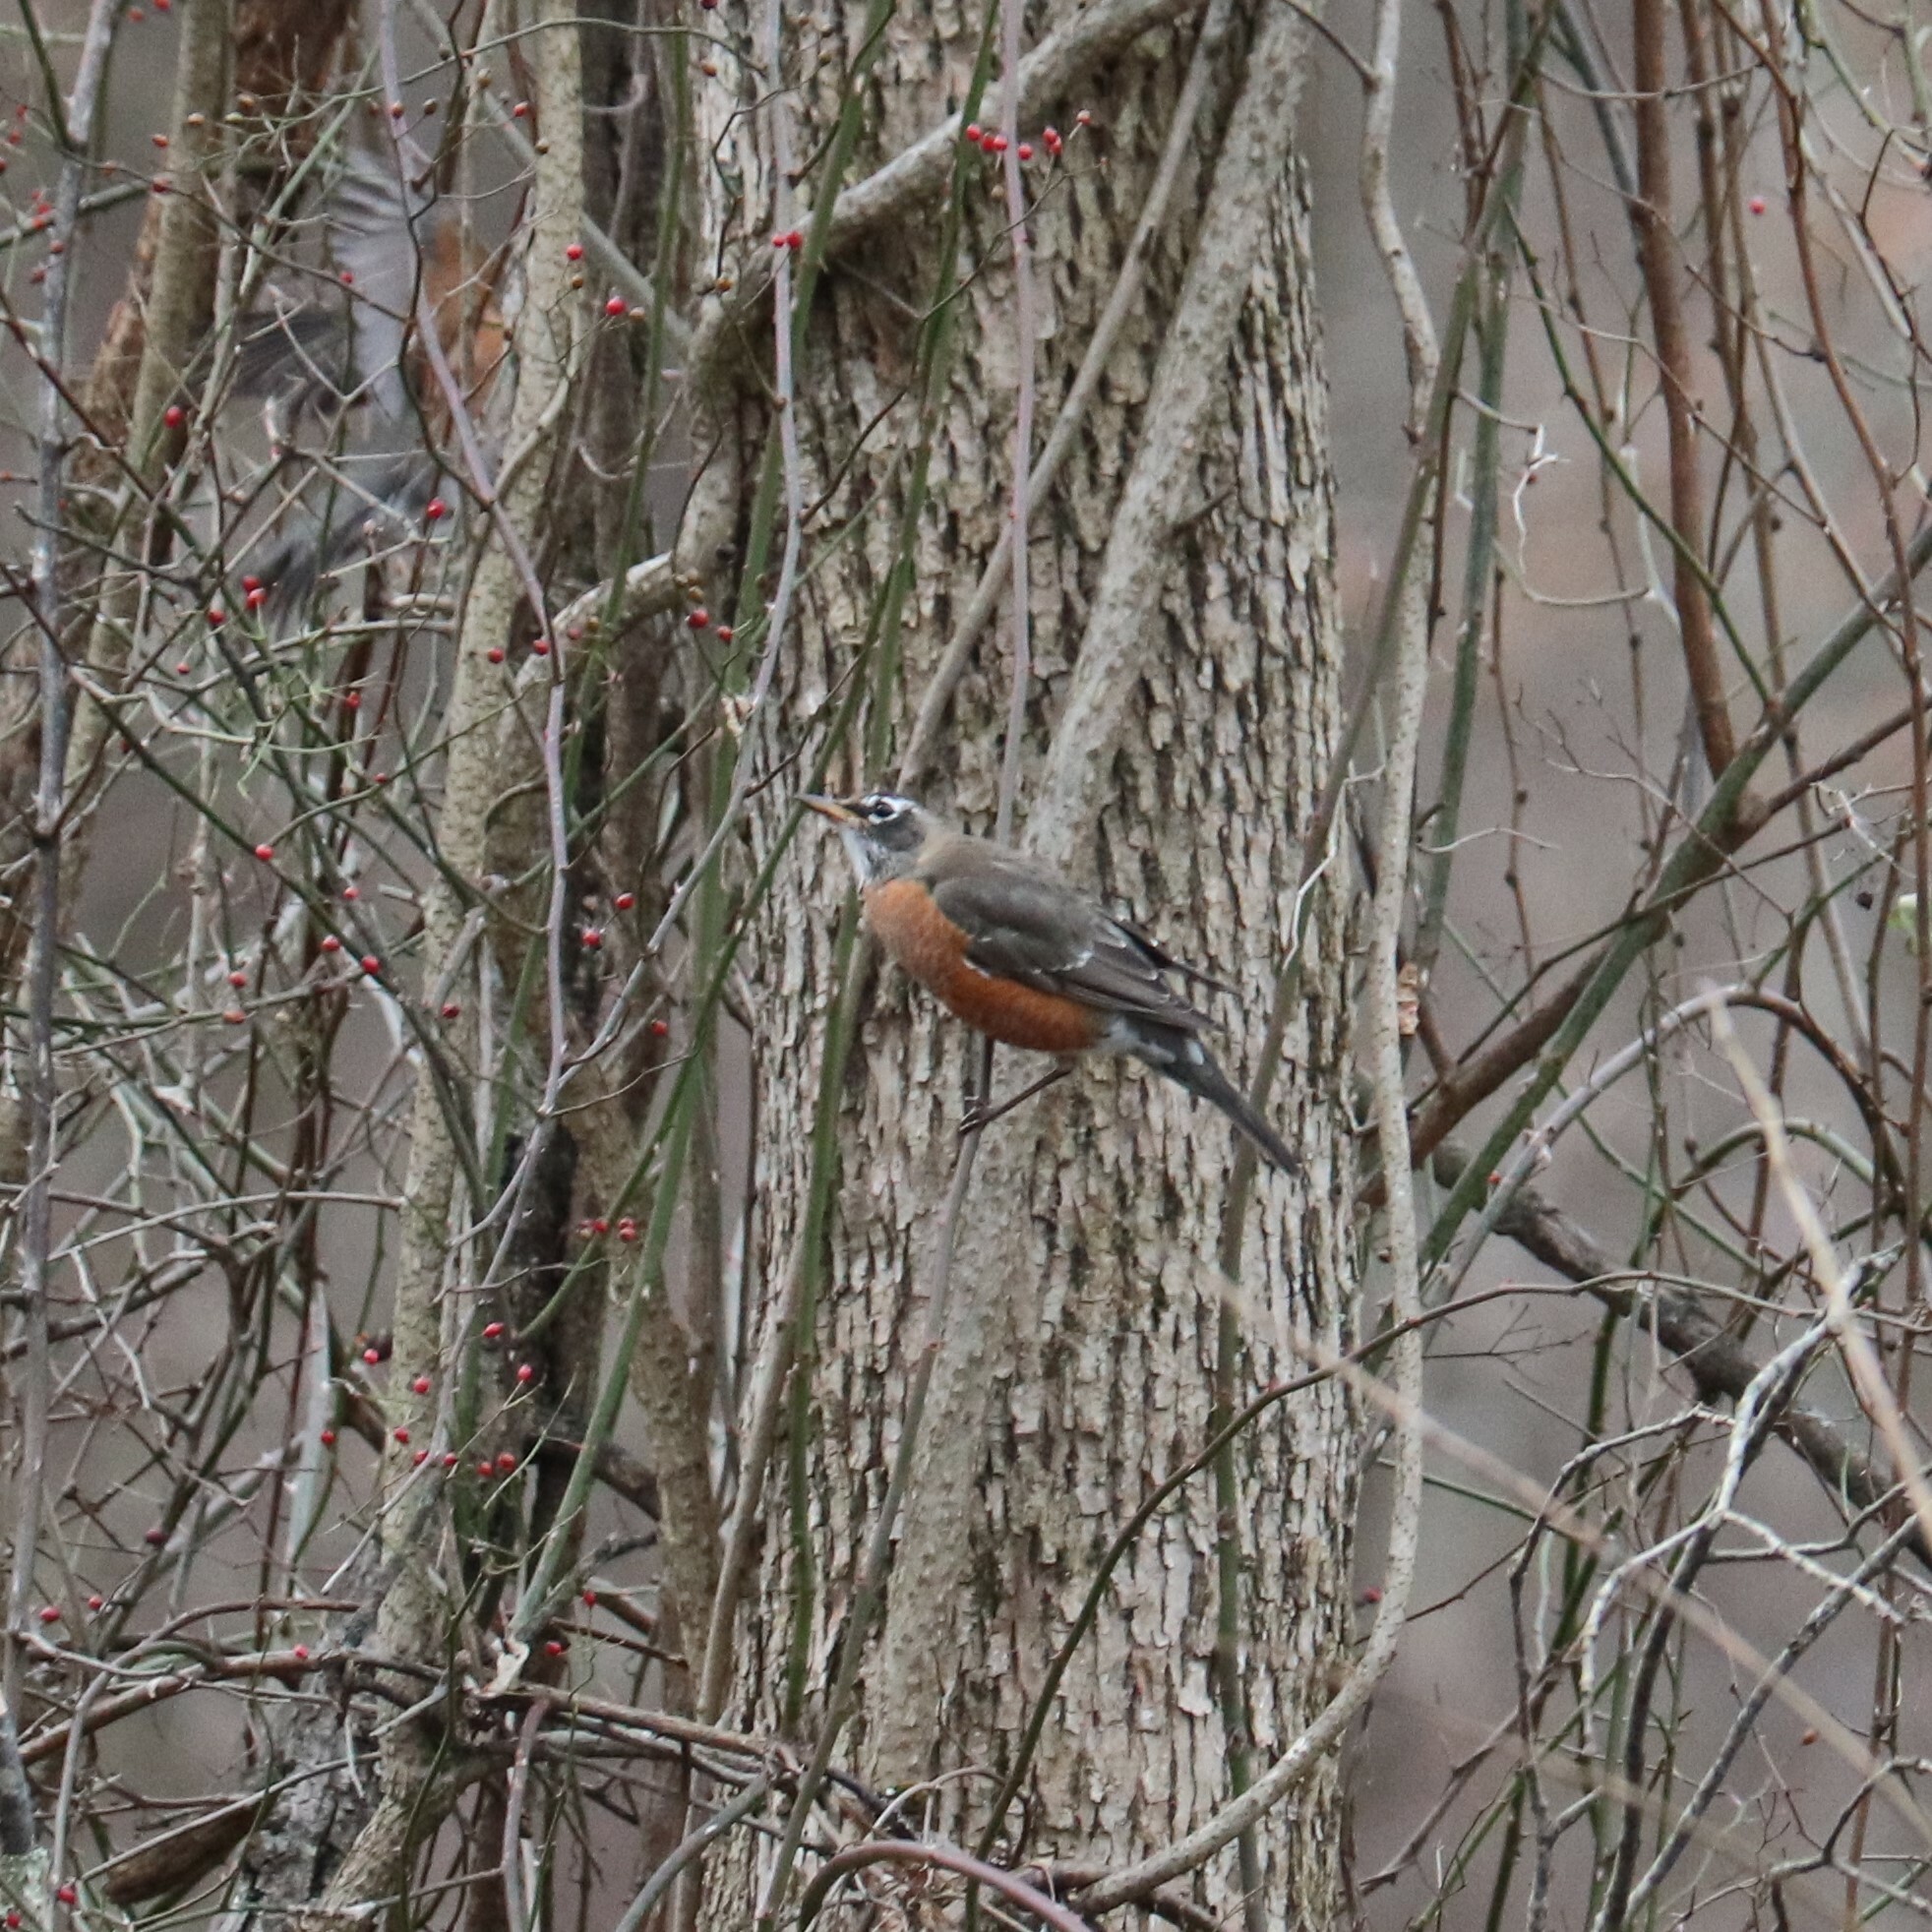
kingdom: Animalia
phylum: Chordata
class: Aves
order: Passeriformes
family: Turdidae
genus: Turdus
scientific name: Turdus migratorius
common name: American robin
